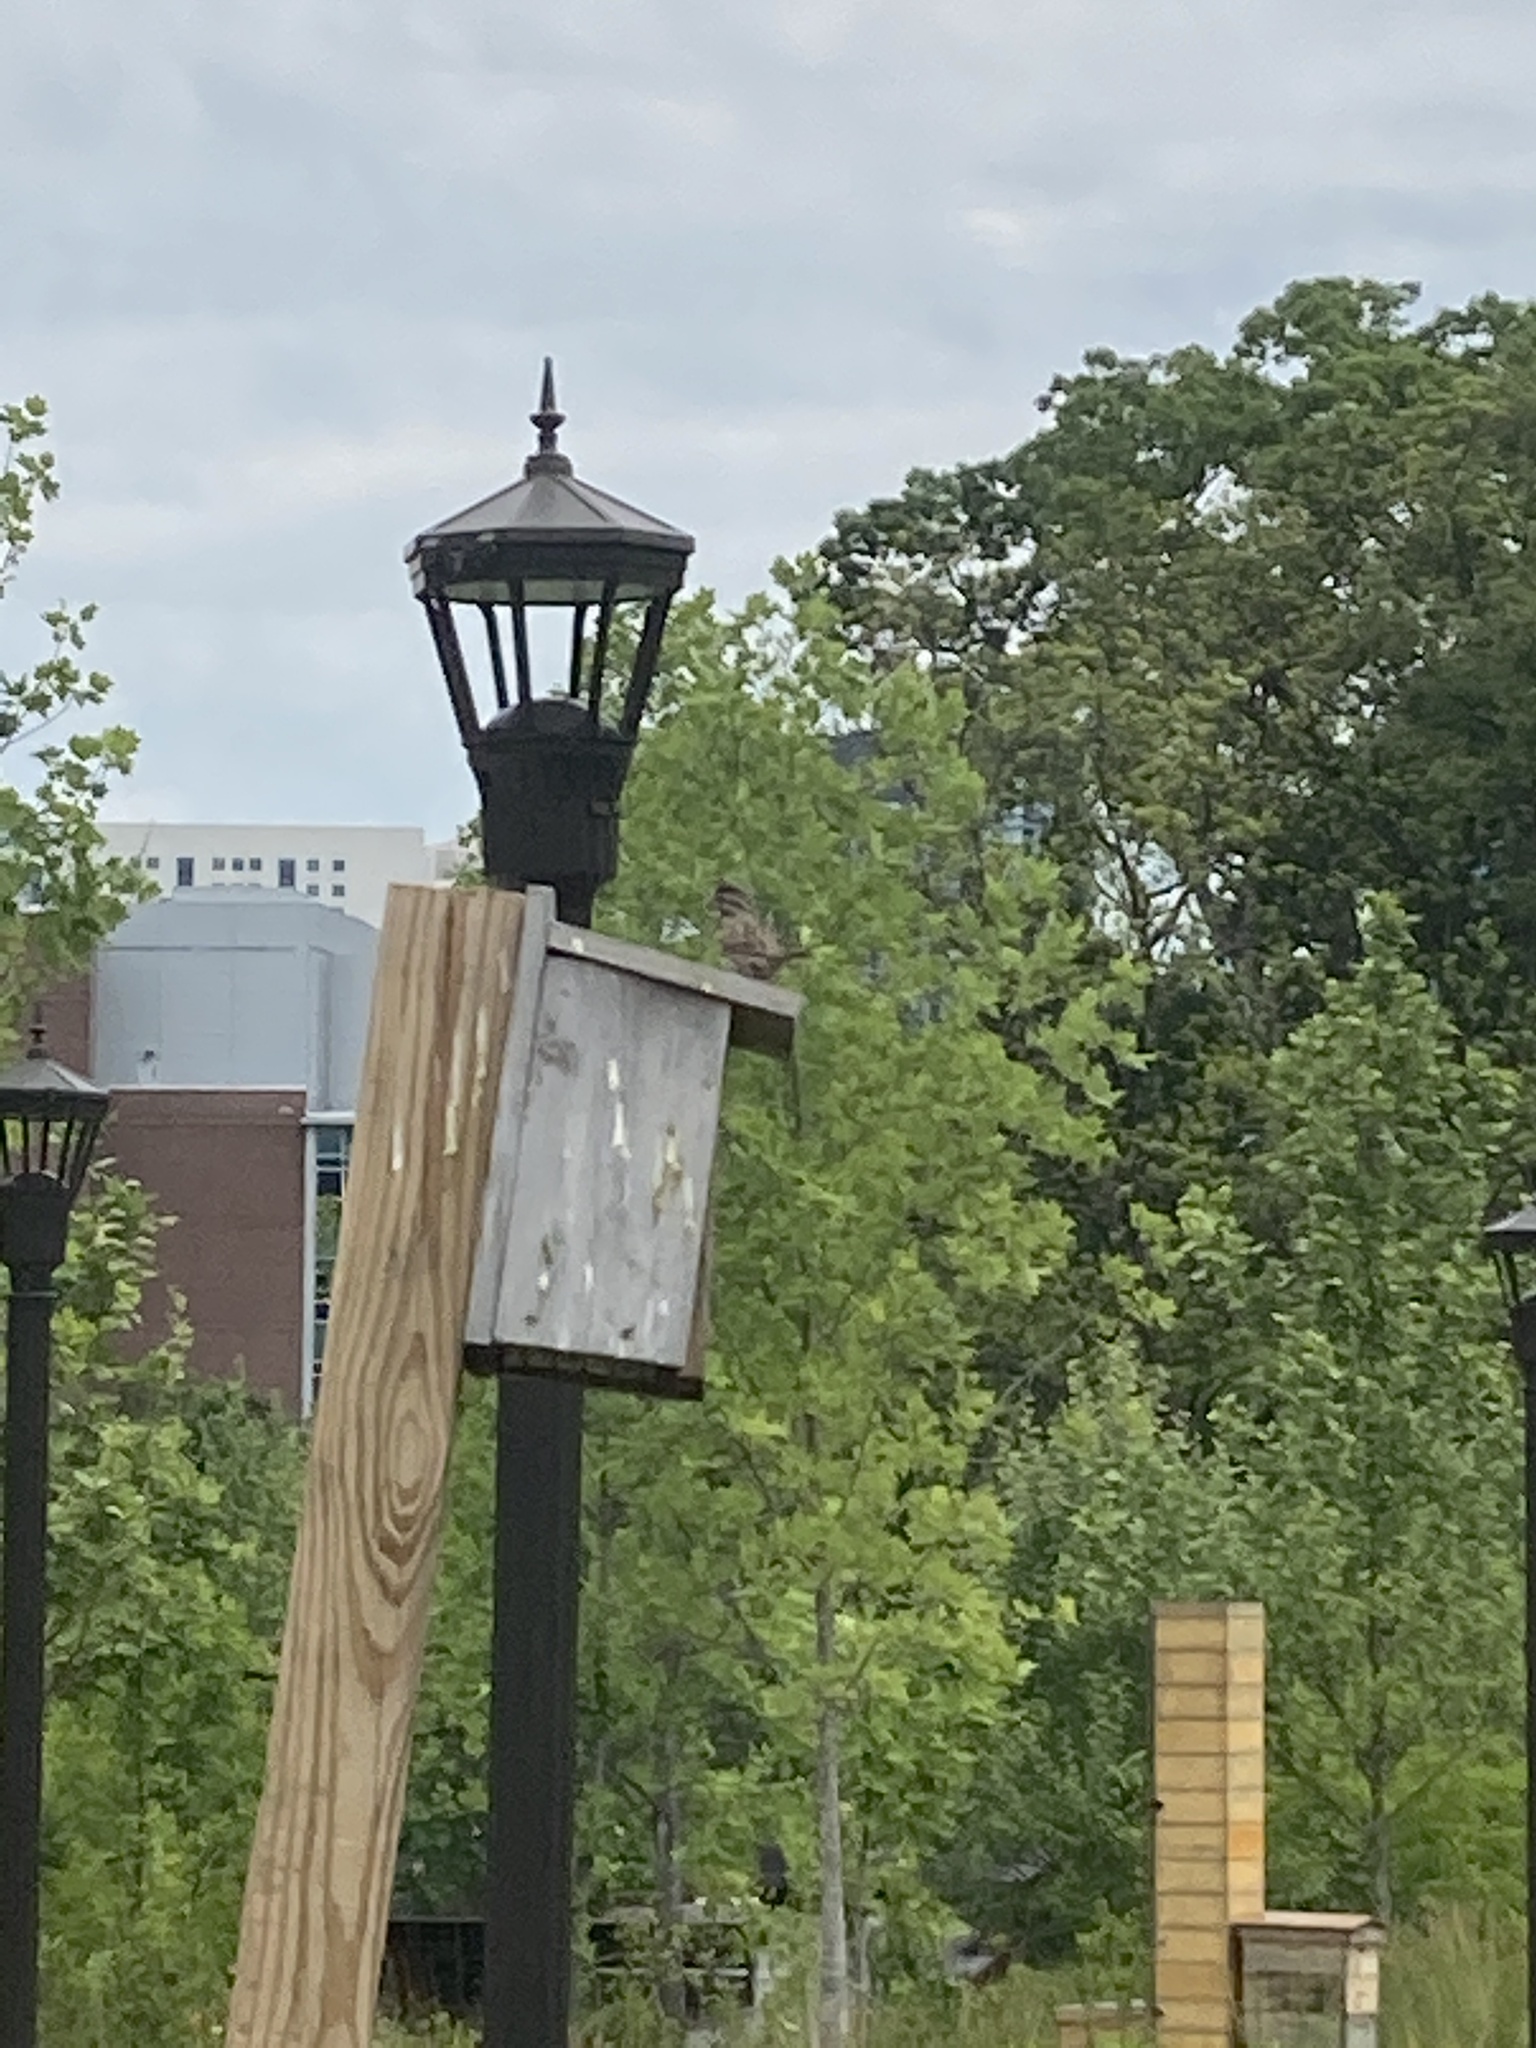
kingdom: Animalia
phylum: Chordata
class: Aves
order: Passeriformes
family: Passerellidae
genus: Melospiza
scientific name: Melospiza melodia
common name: Song sparrow
